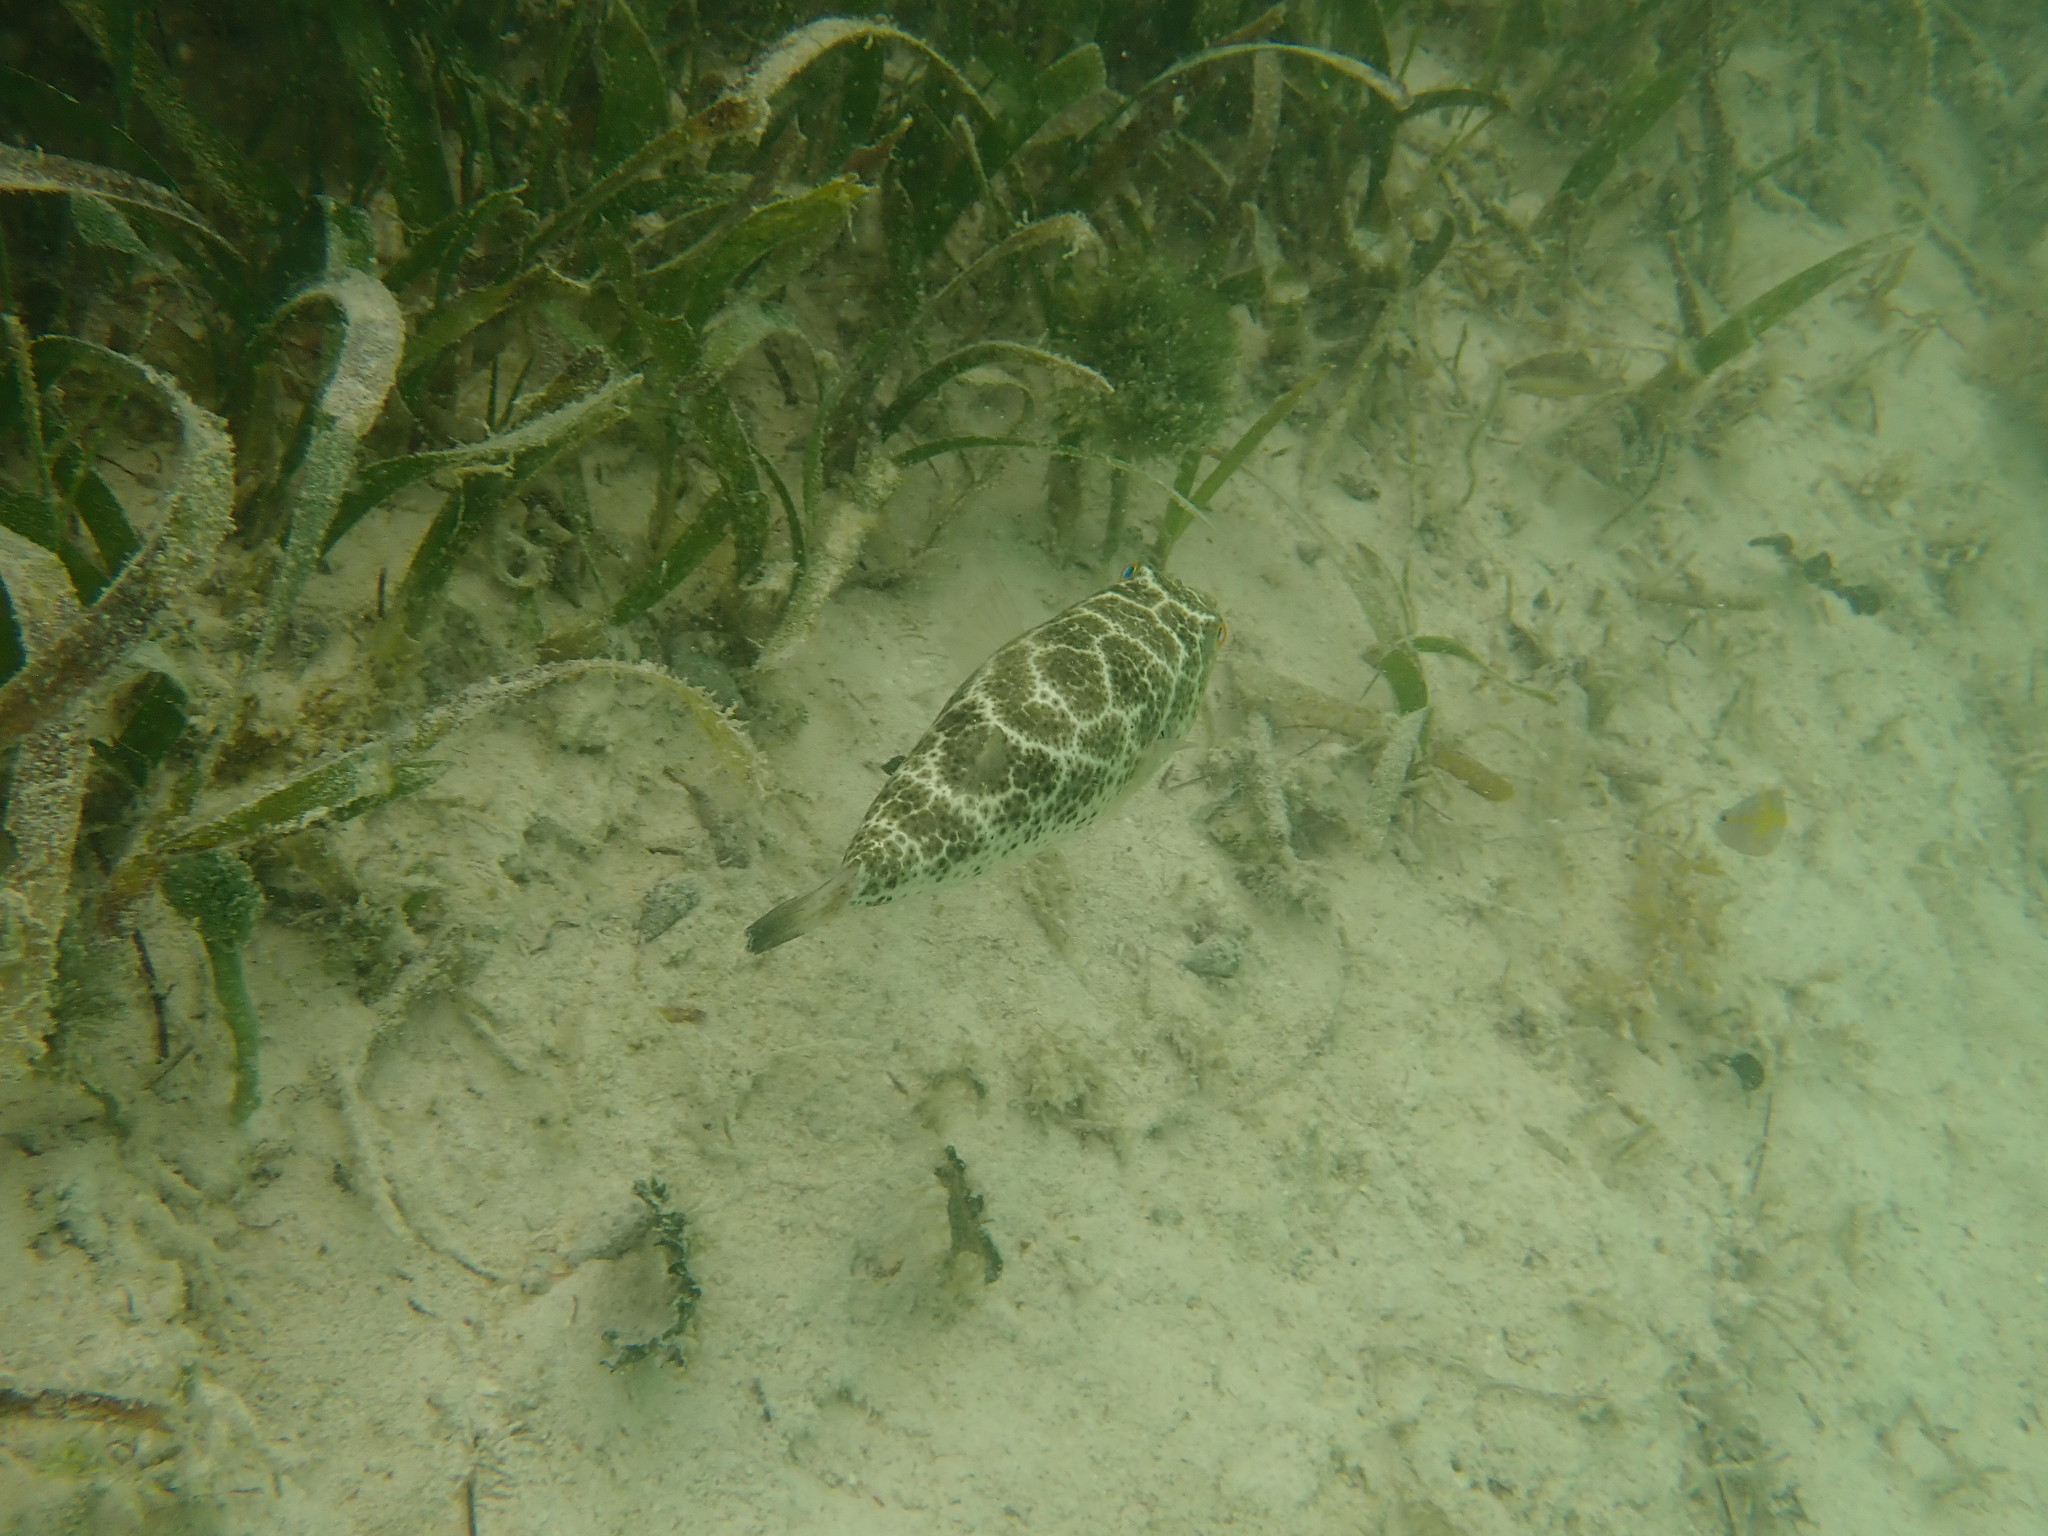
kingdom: Animalia
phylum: Chordata
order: Tetraodontiformes
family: Tetraodontidae
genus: Sphoeroides
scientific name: Sphoeroides testudineus
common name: Checkered puffer
